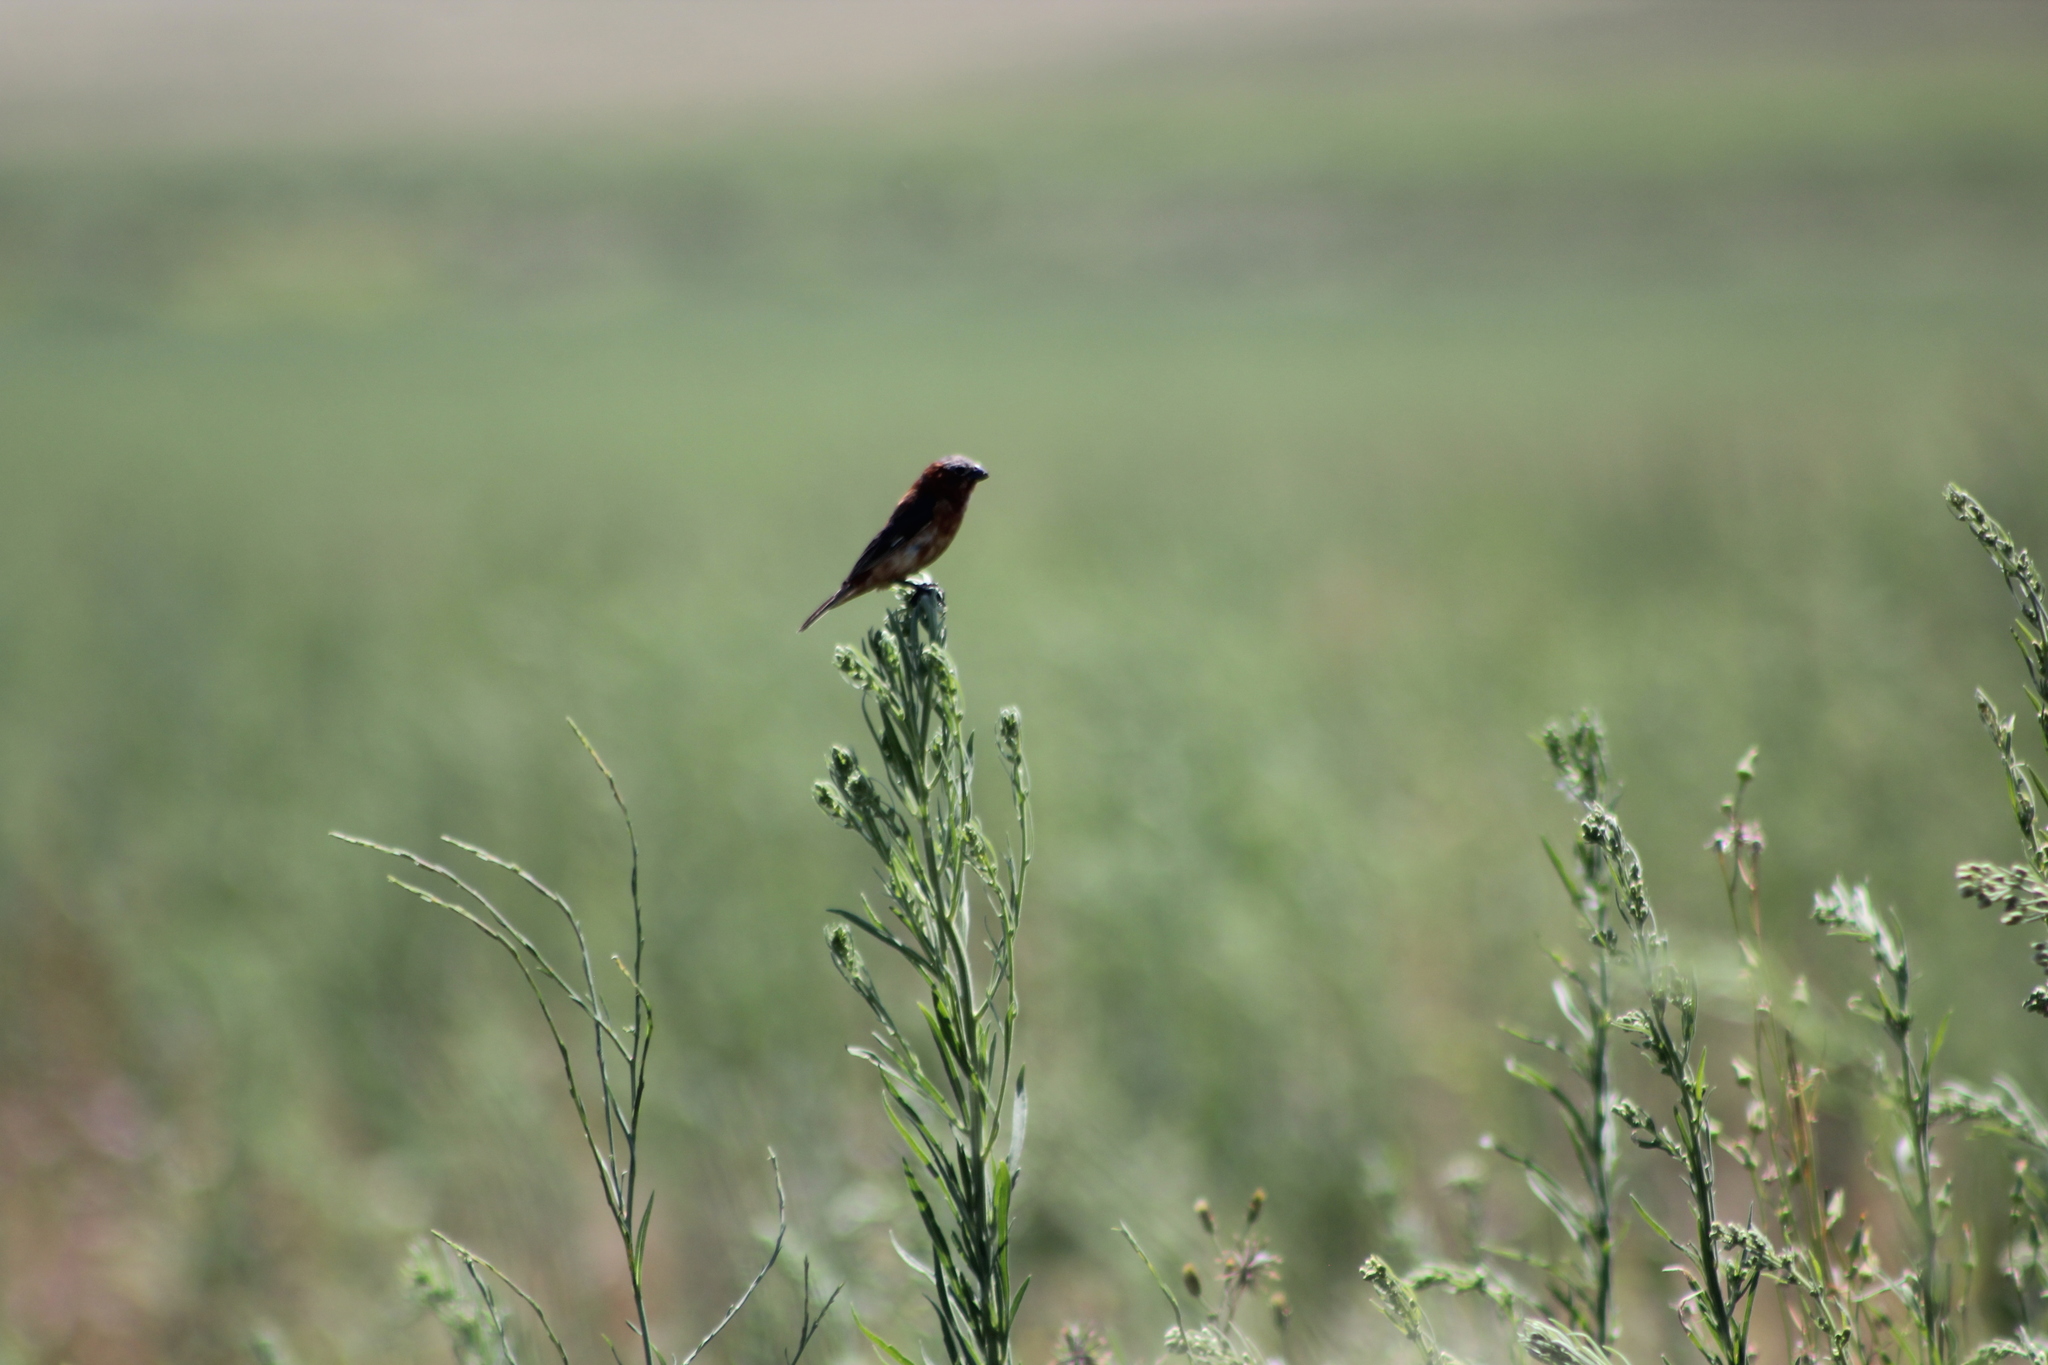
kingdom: Animalia
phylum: Chordata
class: Aves
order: Passeriformes
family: Thraupidae
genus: Sporophila
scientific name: Sporophila cinnamomea
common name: Chestnut seedeater
